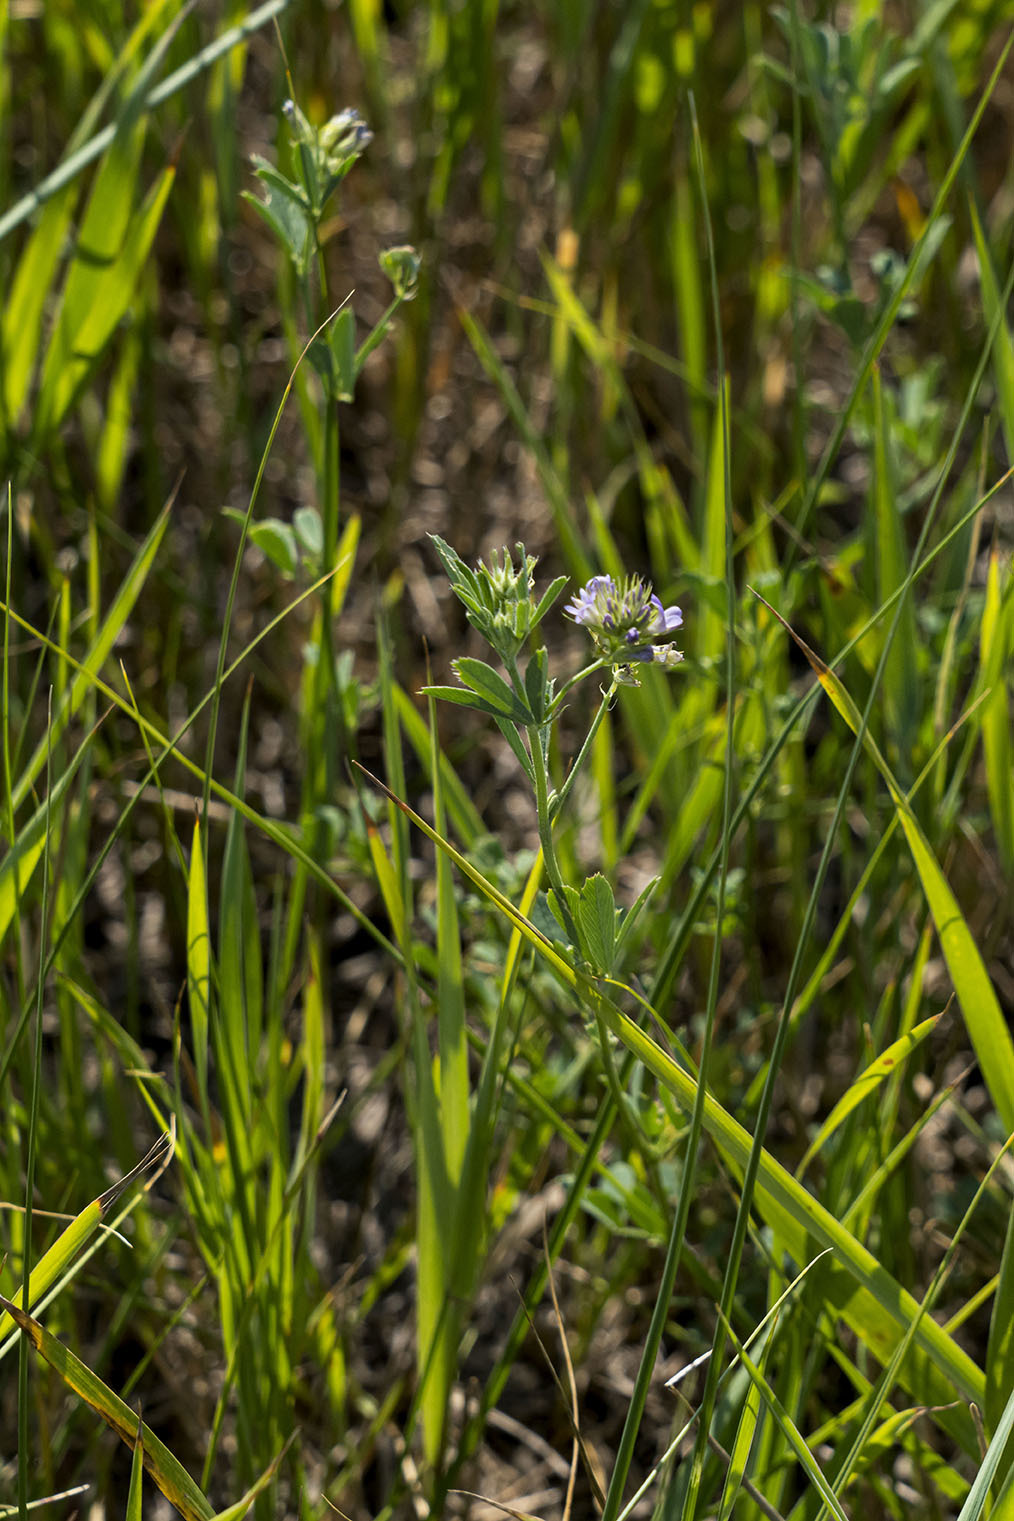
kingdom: Plantae
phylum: Tracheophyta
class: Magnoliopsida
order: Fabales
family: Fabaceae
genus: Medicago
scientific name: Medicago sativa
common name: Alfalfa
